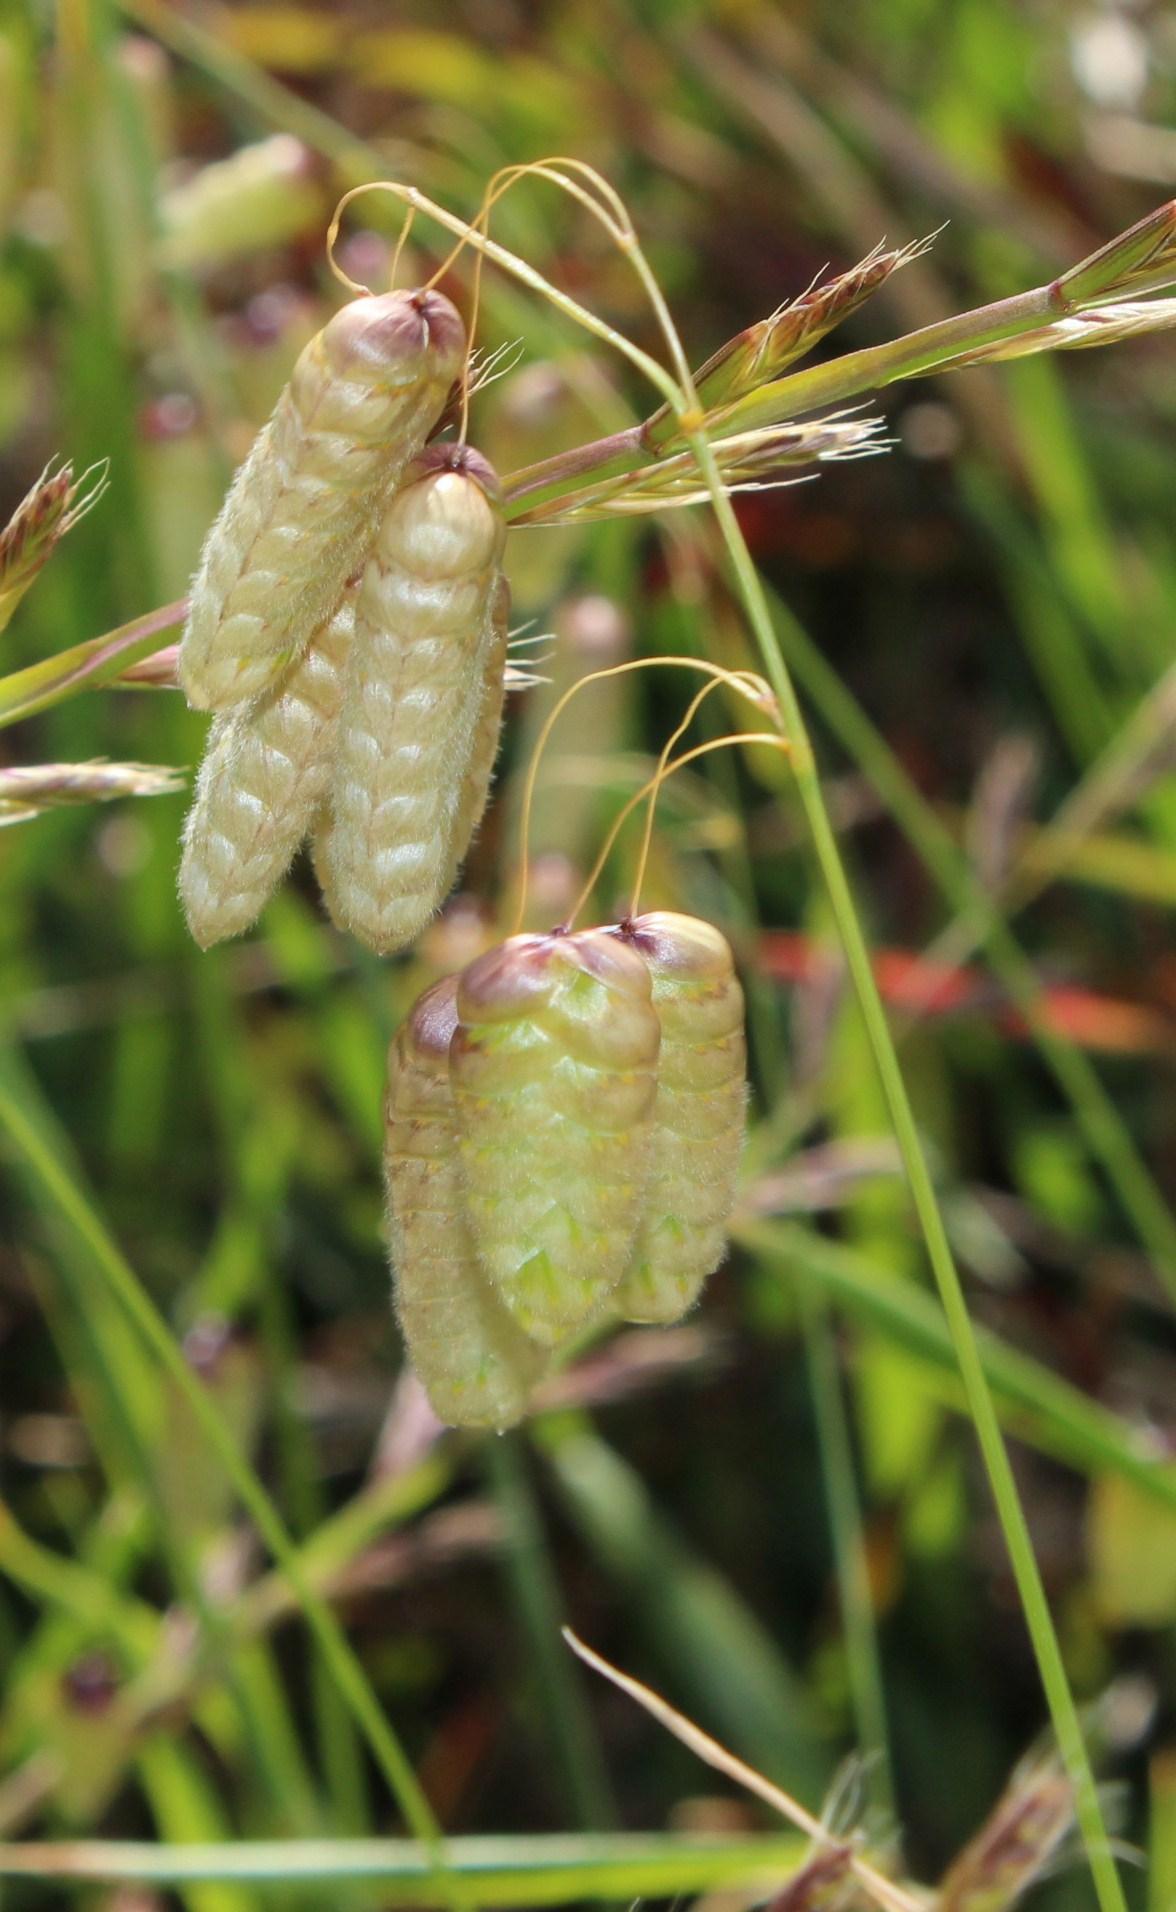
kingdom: Plantae
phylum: Tracheophyta
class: Liliopsida
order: Poales
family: Poaceae
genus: Briza
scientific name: Briza maxima
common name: Big quakinggrass
